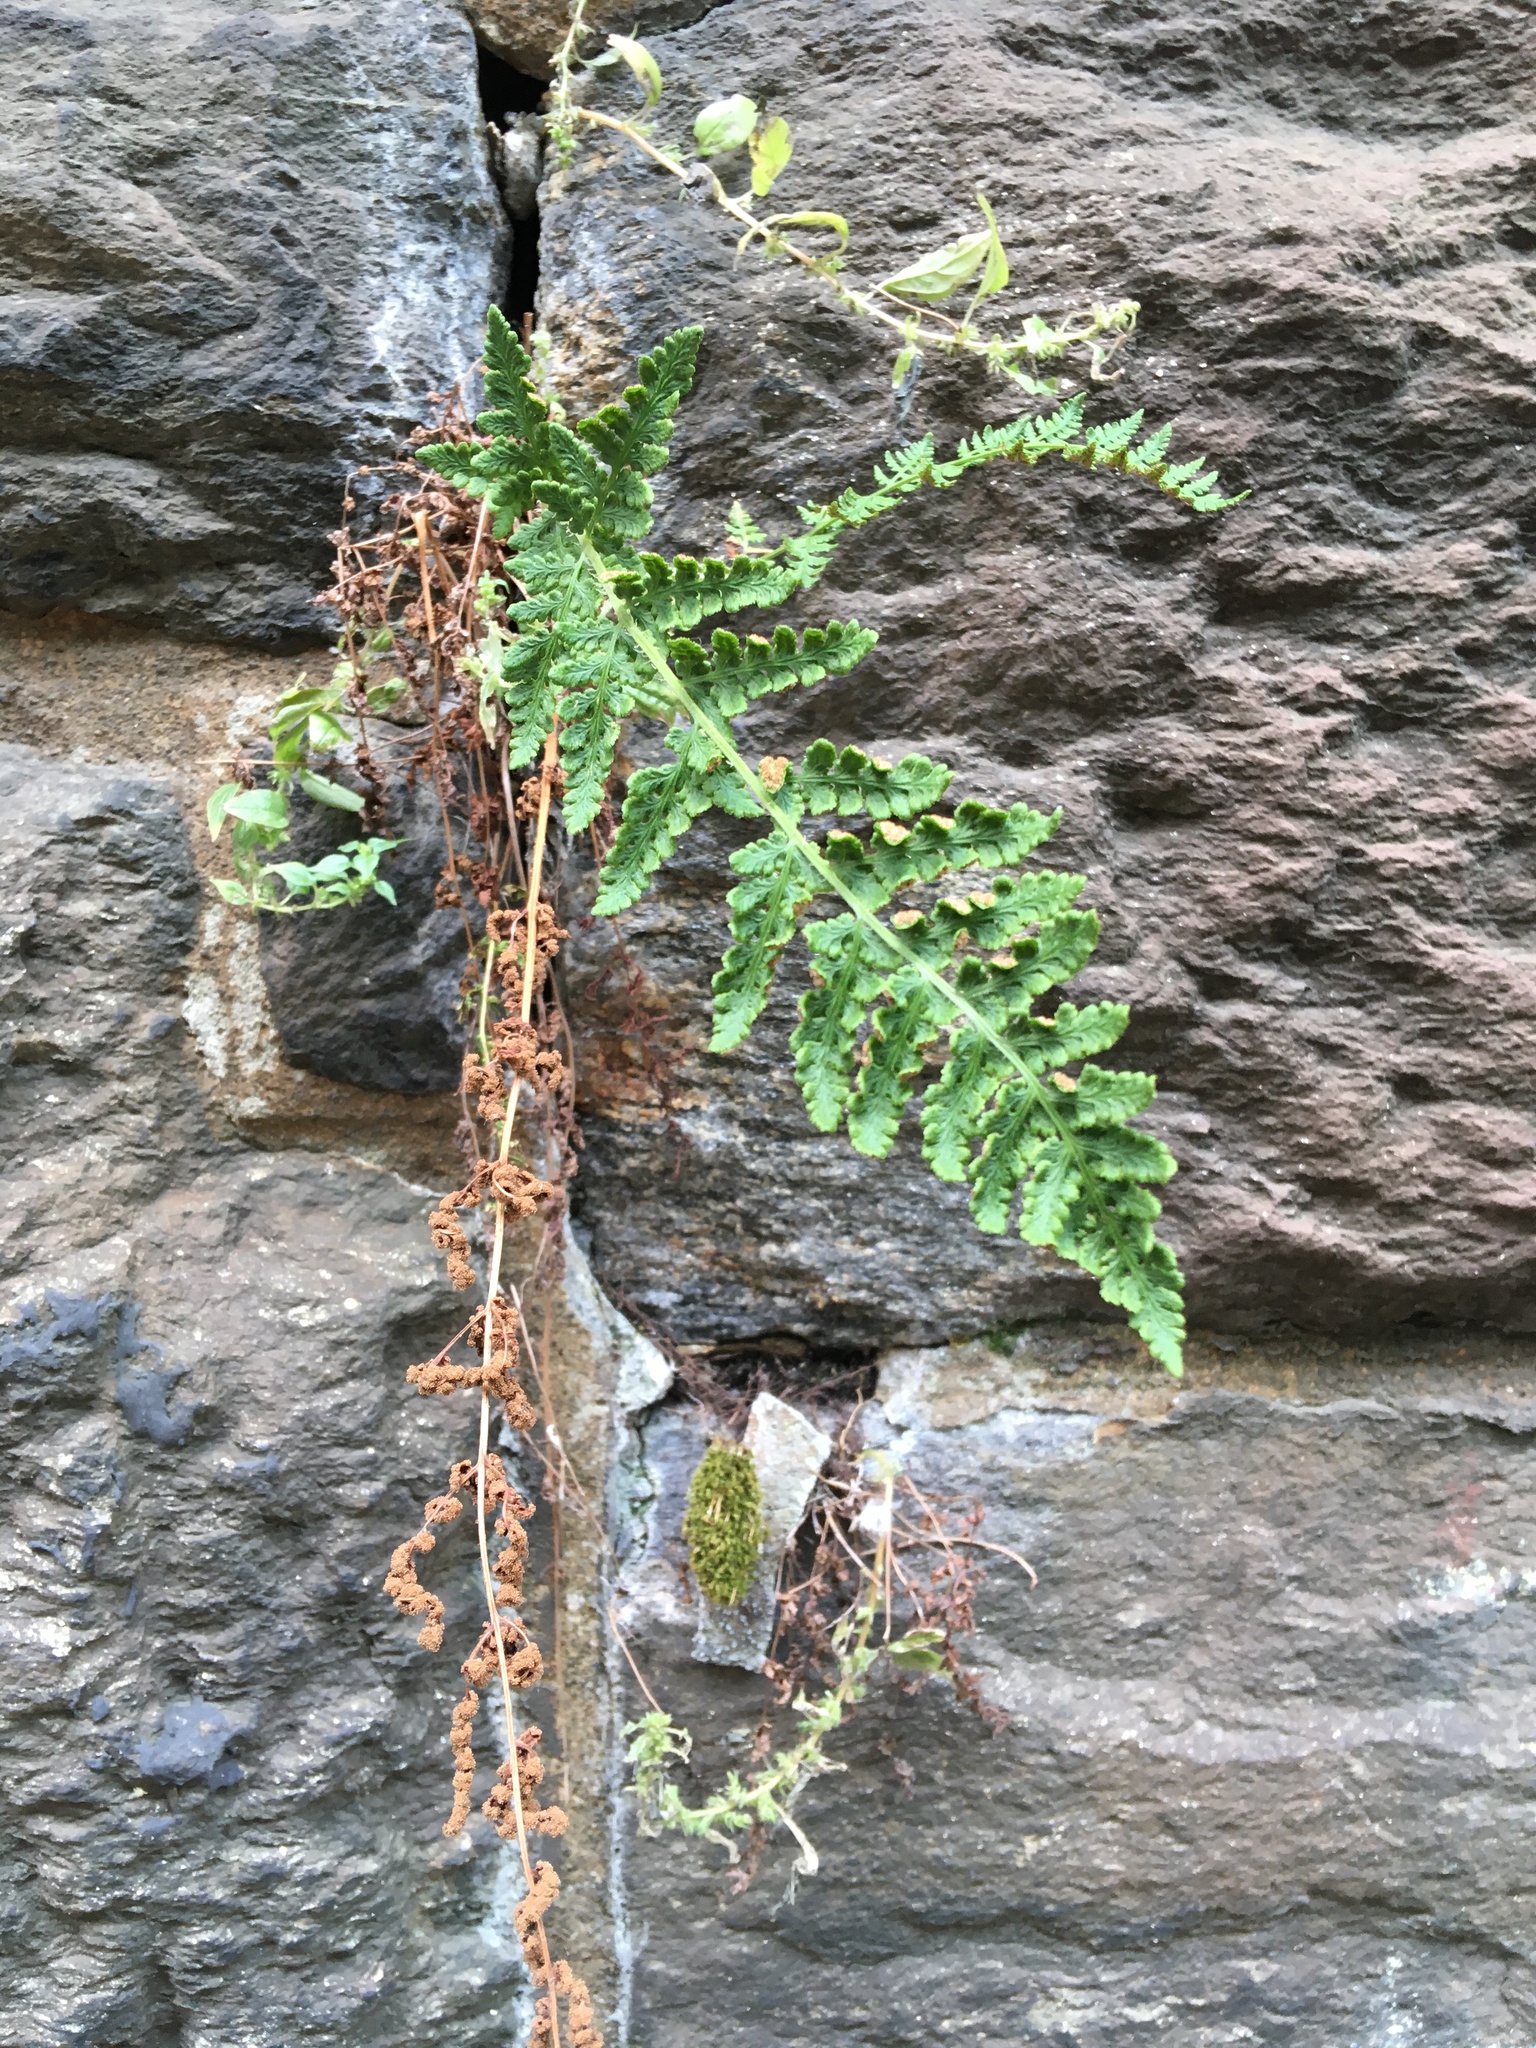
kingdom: Plantae
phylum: Tracheophyta
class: Polypodiopsida
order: Polypodiales
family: Woodsiaceae
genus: Physematium
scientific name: Physematium obtusum
